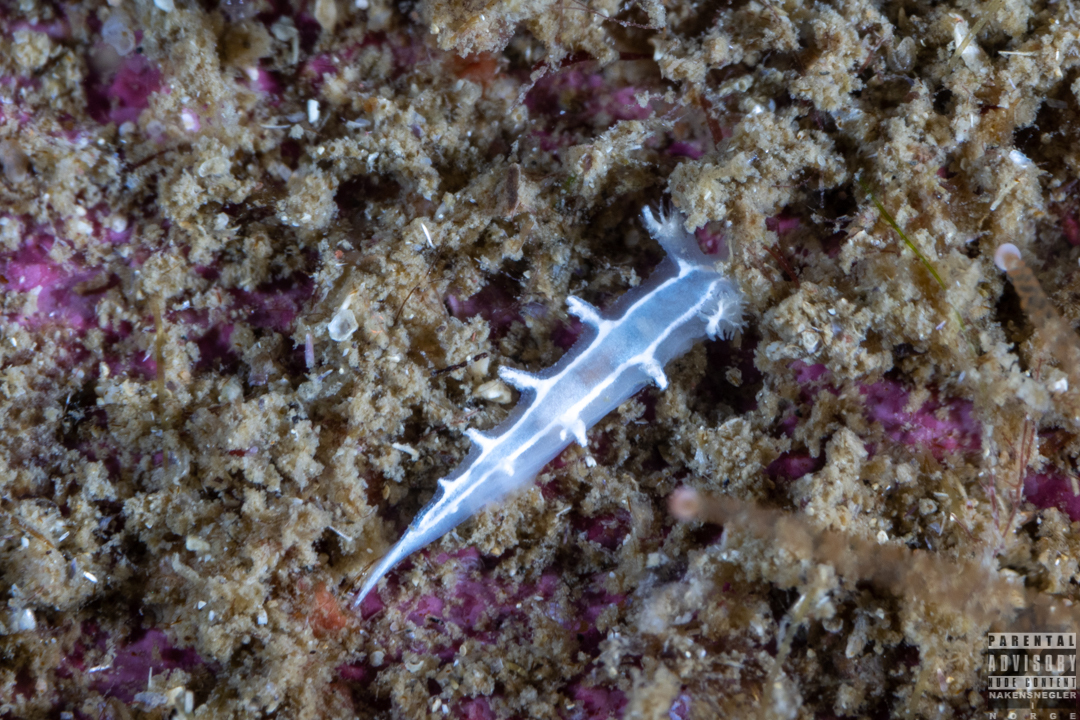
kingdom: Animalia
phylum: Mollusca
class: Gastropoda
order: Nudibranchia
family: Tritoniidae
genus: Duvaucelia
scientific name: Duvaucelia lineata
